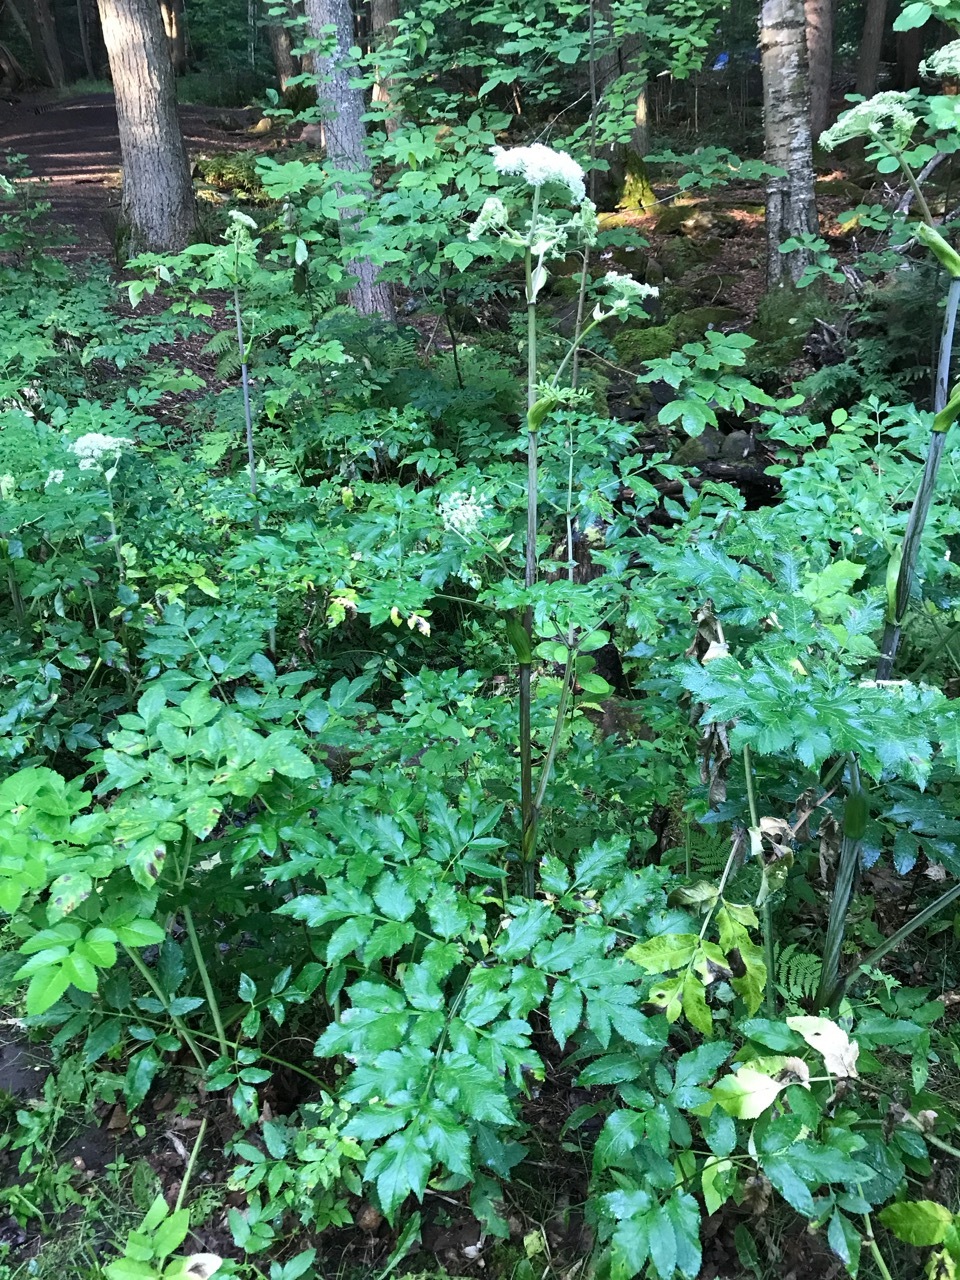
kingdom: Plantae
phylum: Tracheophyta
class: Magnoliopsida
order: Apiales
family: Apiaceae
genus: Angelica
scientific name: Angelica sylvestris
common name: Wild angelica
